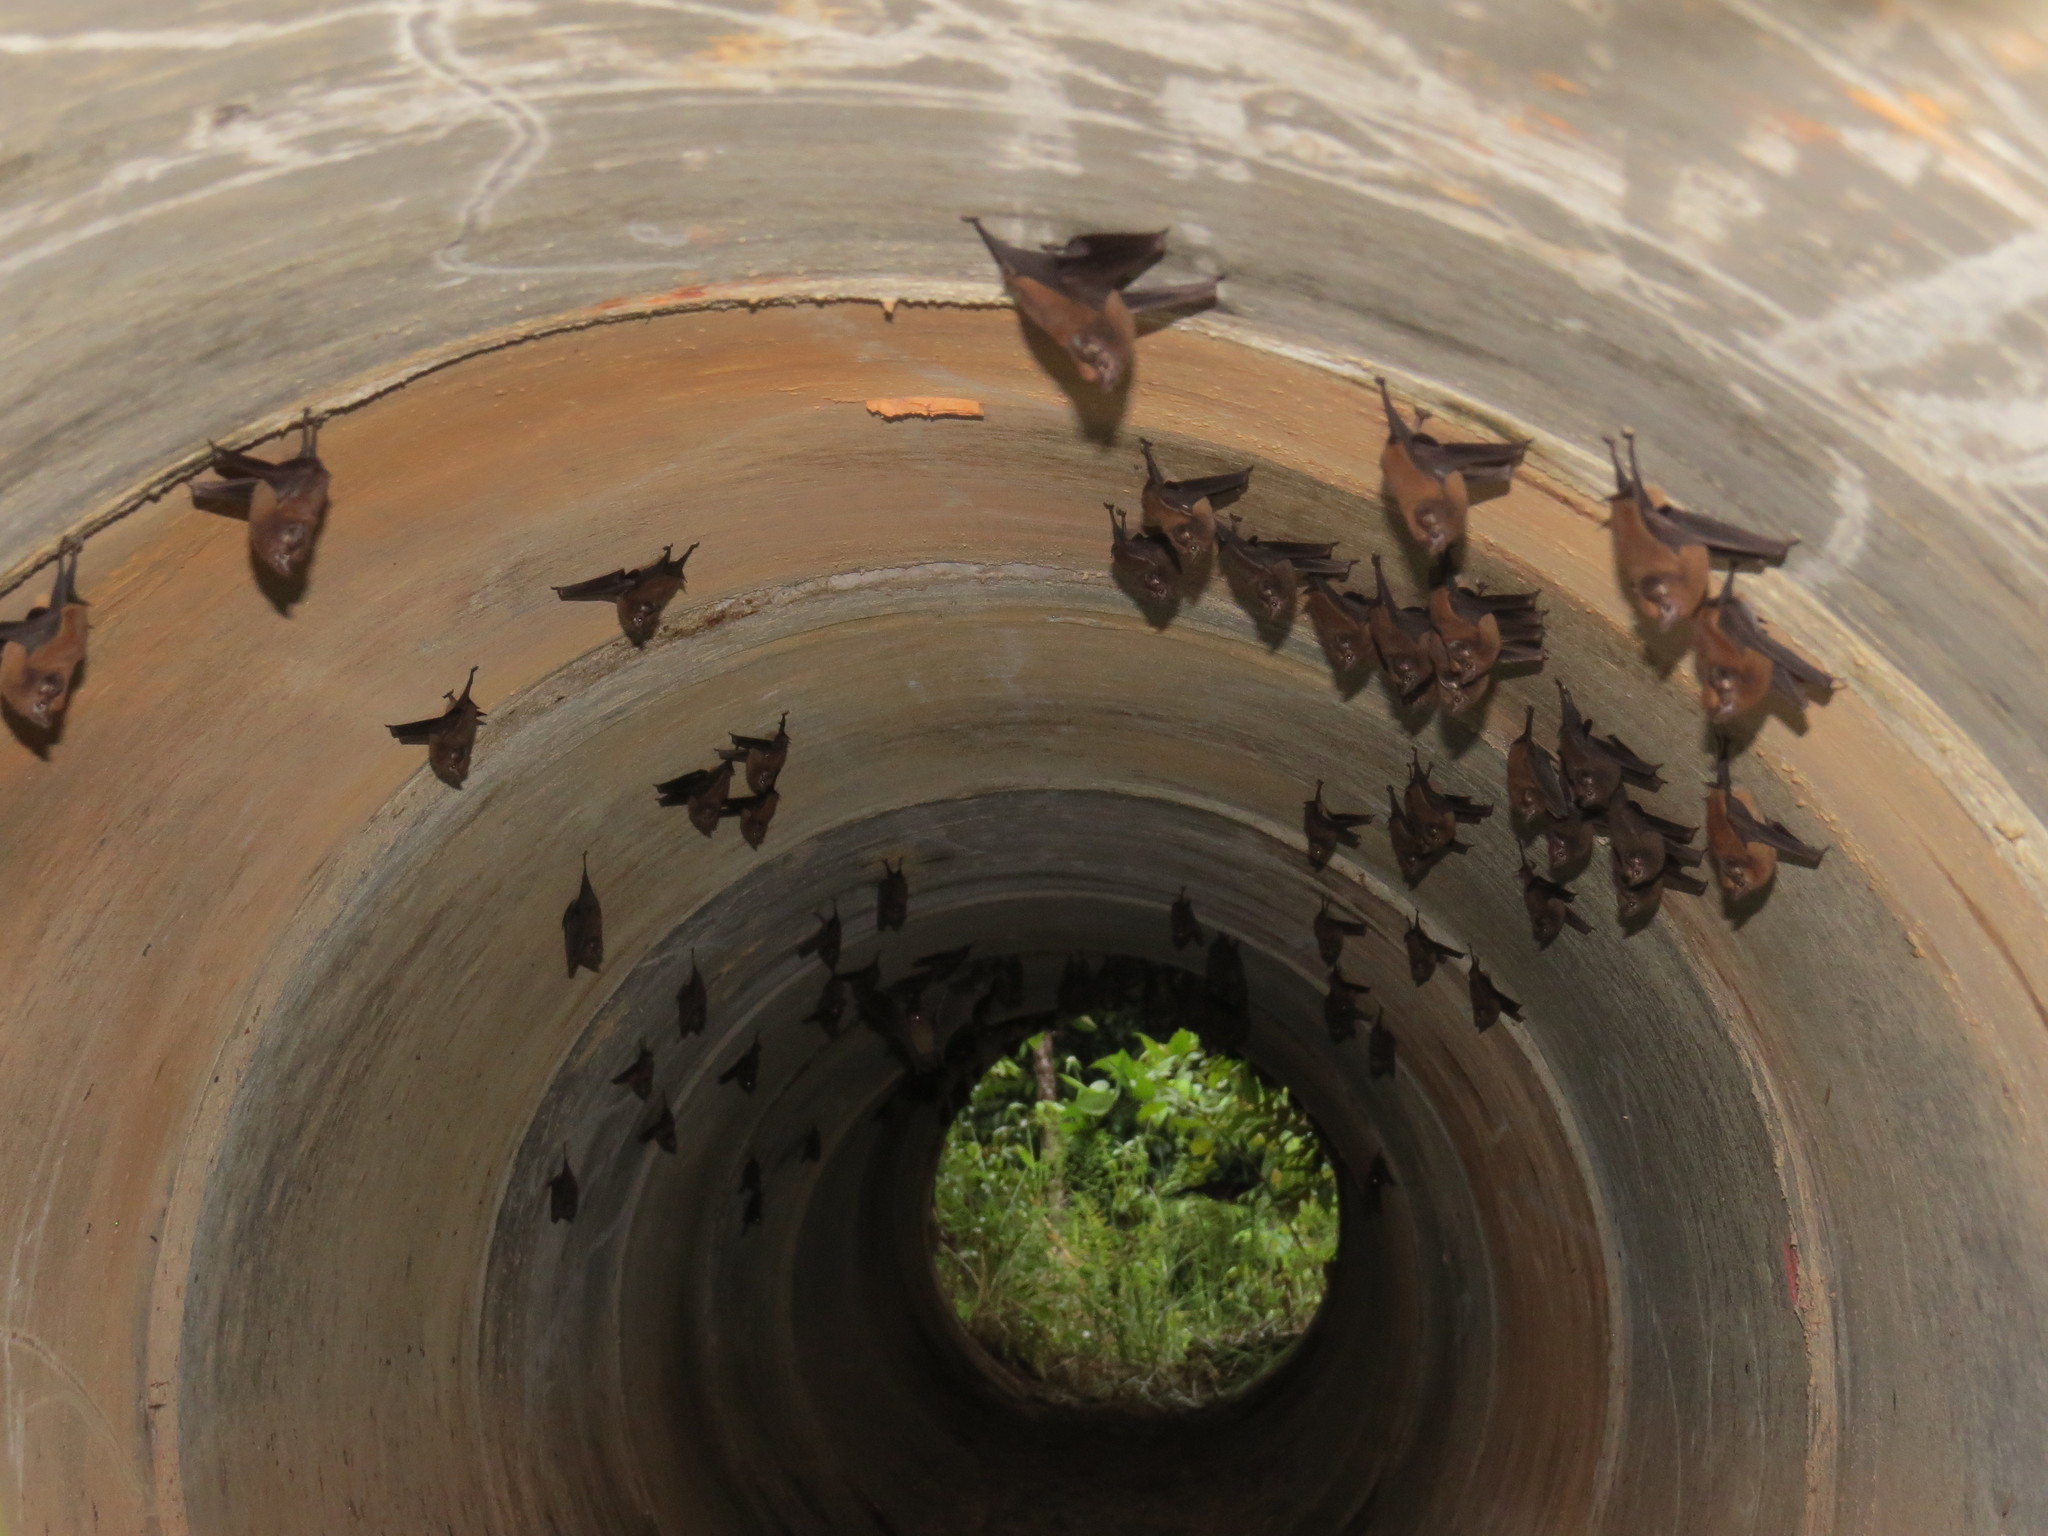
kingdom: Animalia
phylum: Chordata
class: Mammalia
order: Chiroptera
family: Emballonuridae
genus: Peropteryx
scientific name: Peropteryx trinitatis
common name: Trinidad dog-like bat
